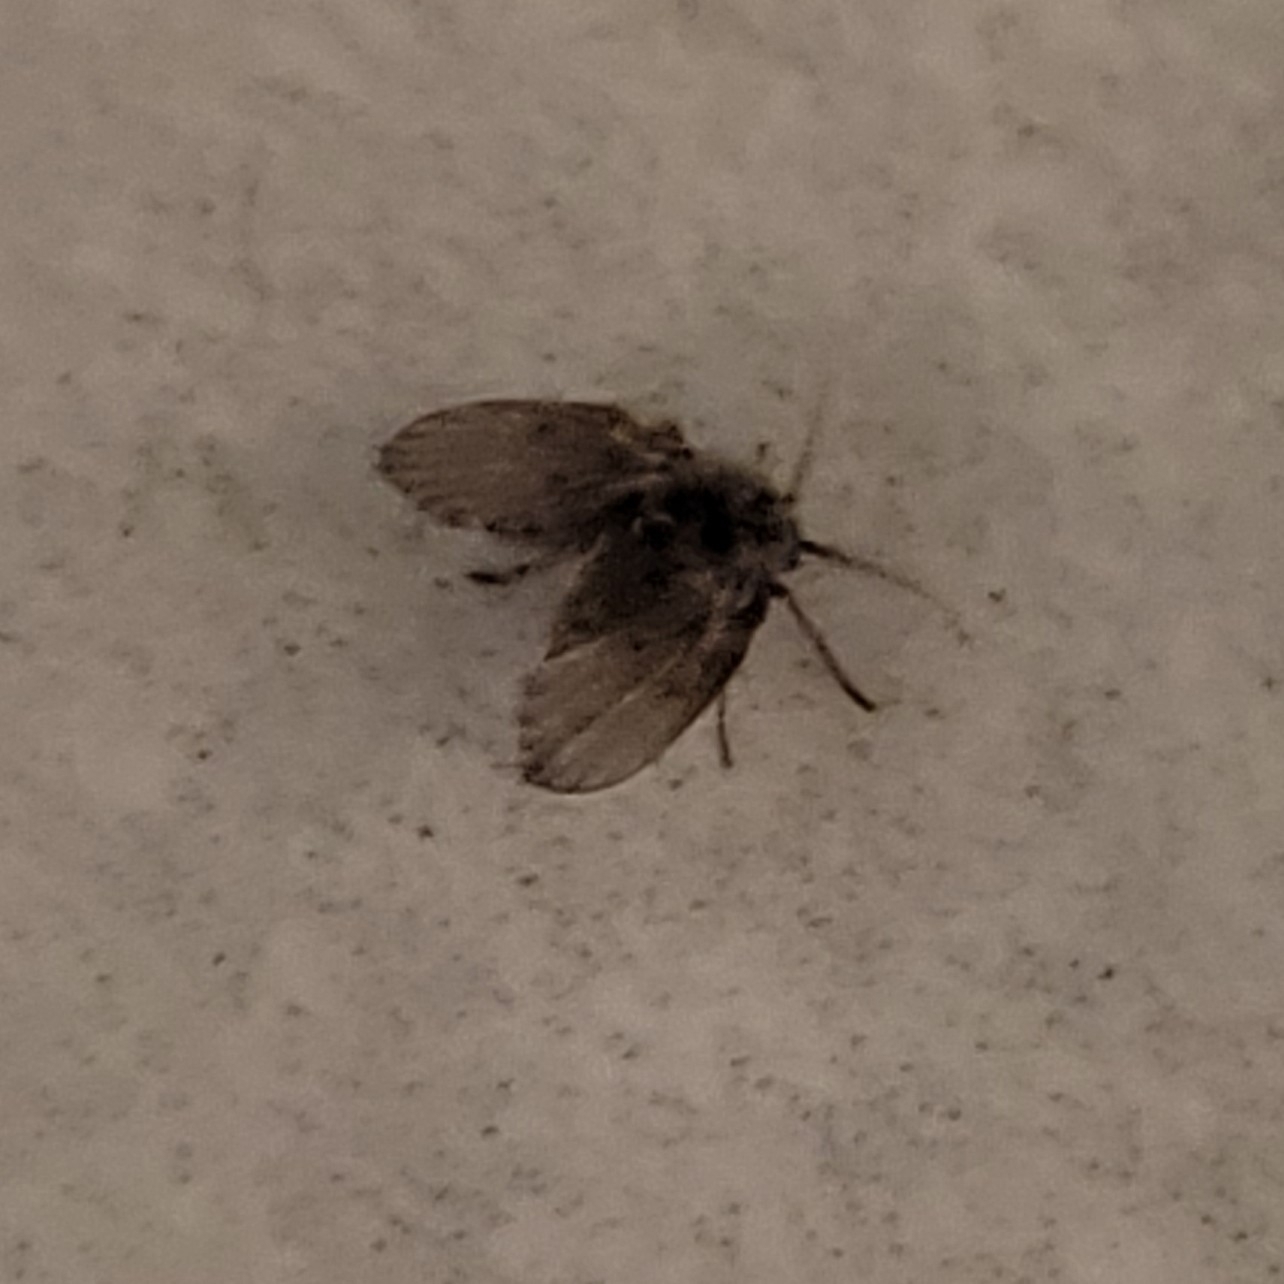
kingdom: Animalia
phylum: Arthropoda
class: Insecta
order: Diptera
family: Psychodidae
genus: Clogmia
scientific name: Clogmia albipunctatus
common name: White-spotted moth fly
